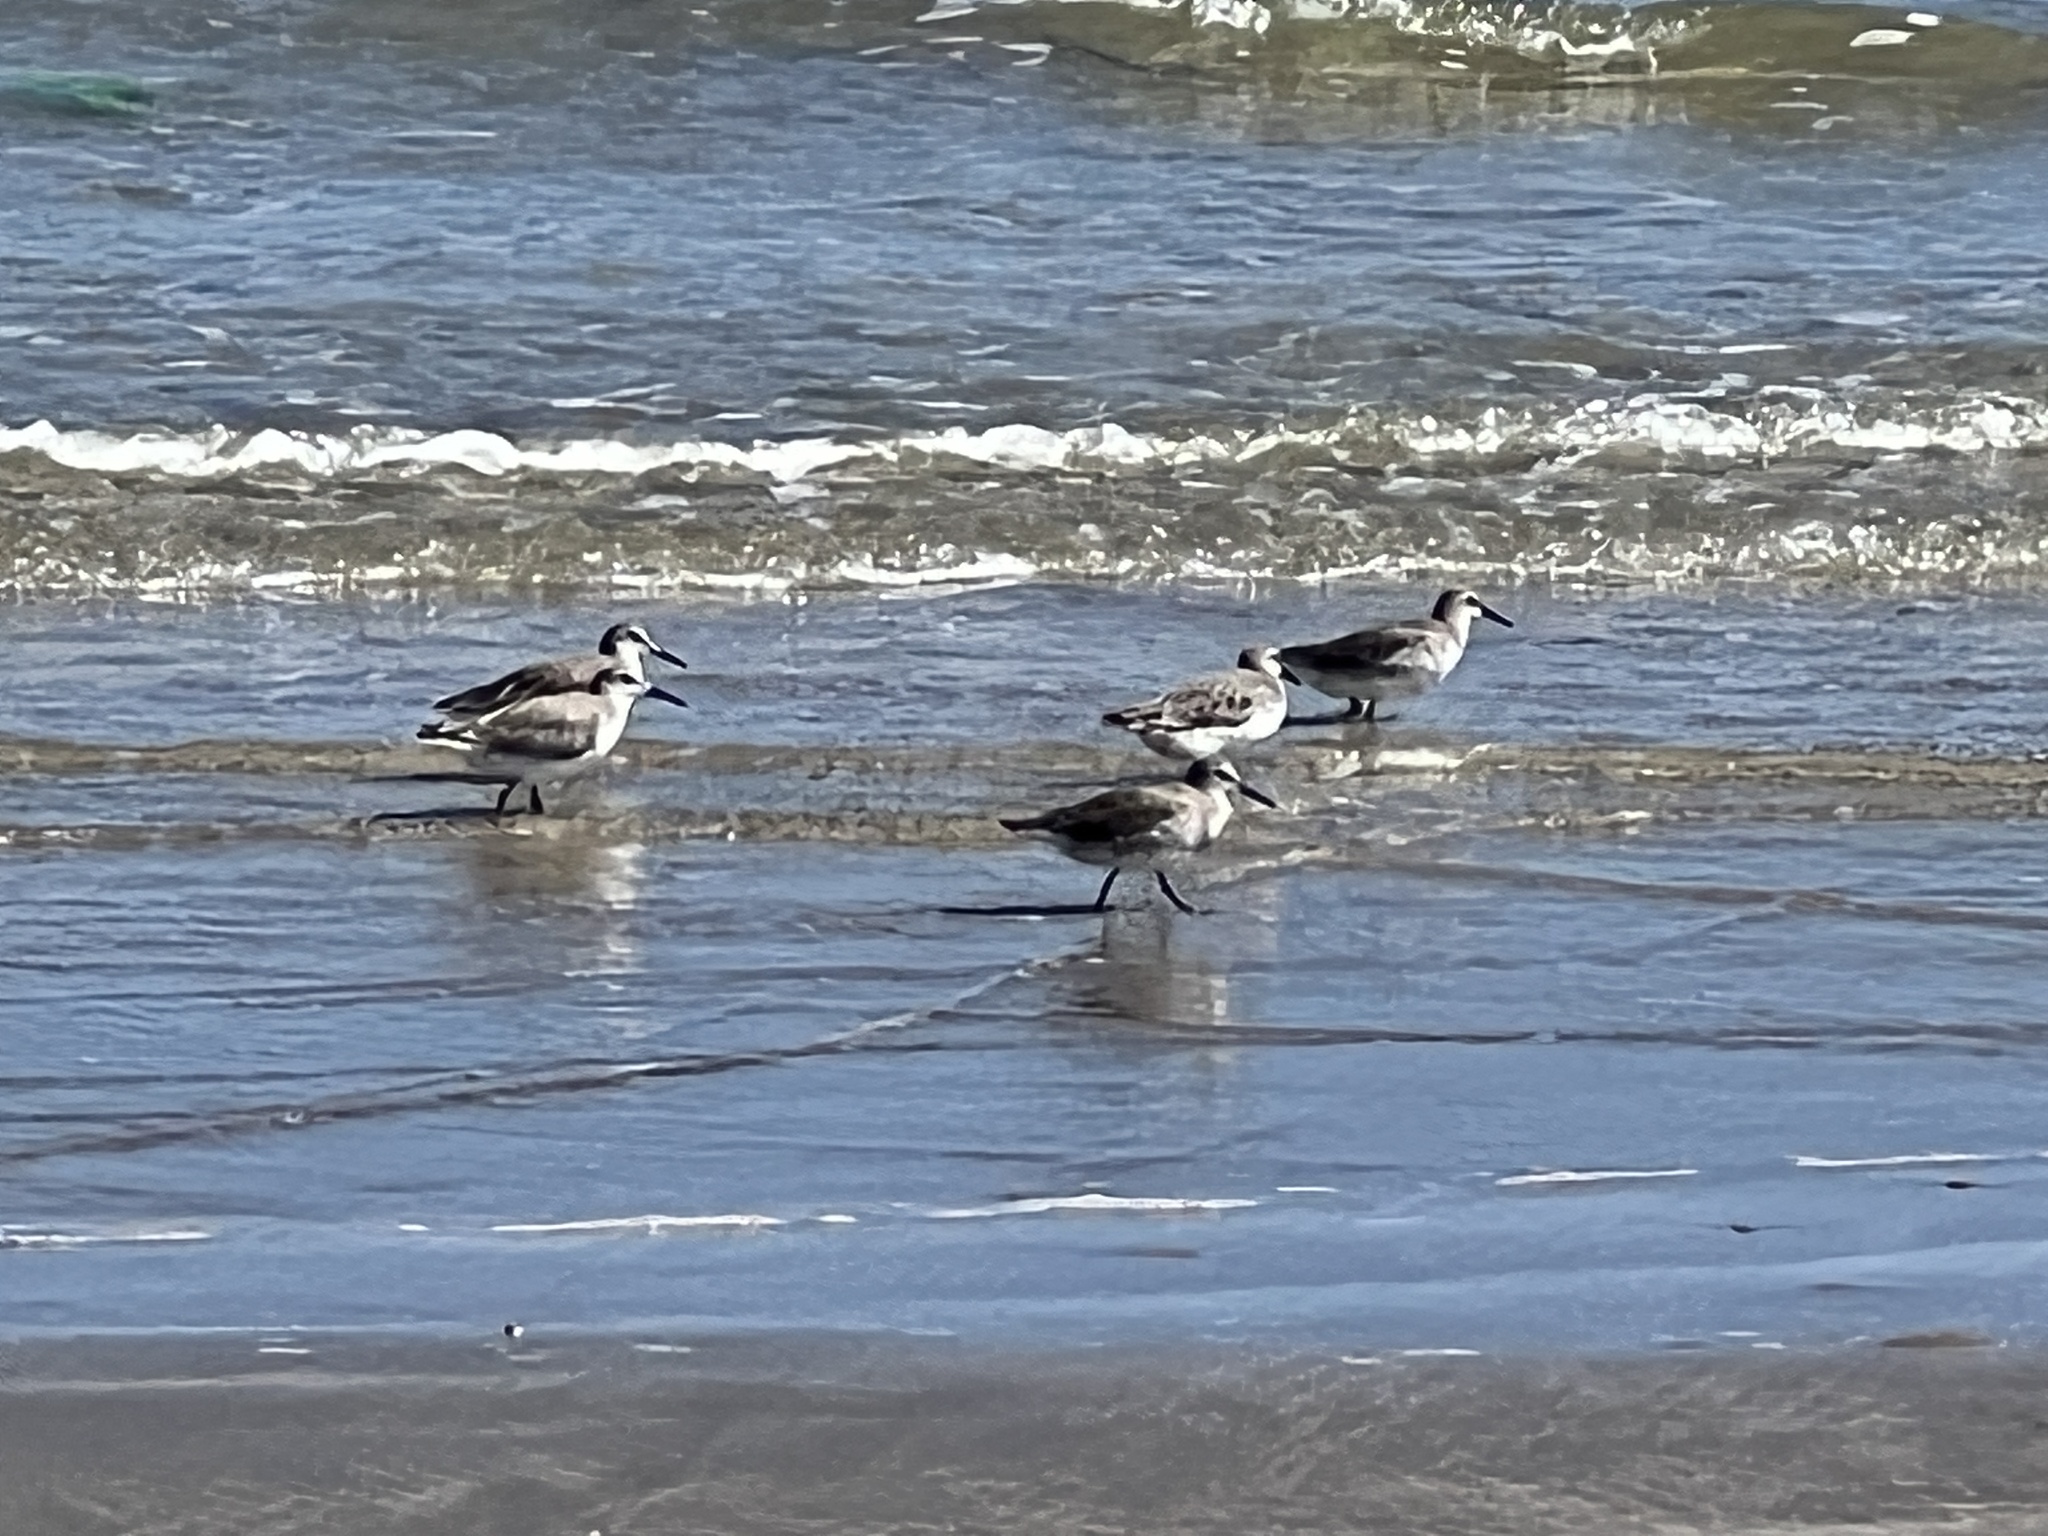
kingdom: Animalia
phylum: Chordata
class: Aves
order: Charadriiformes
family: Scolopacidae
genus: Calidris
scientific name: Calidris canutus
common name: Red knot
